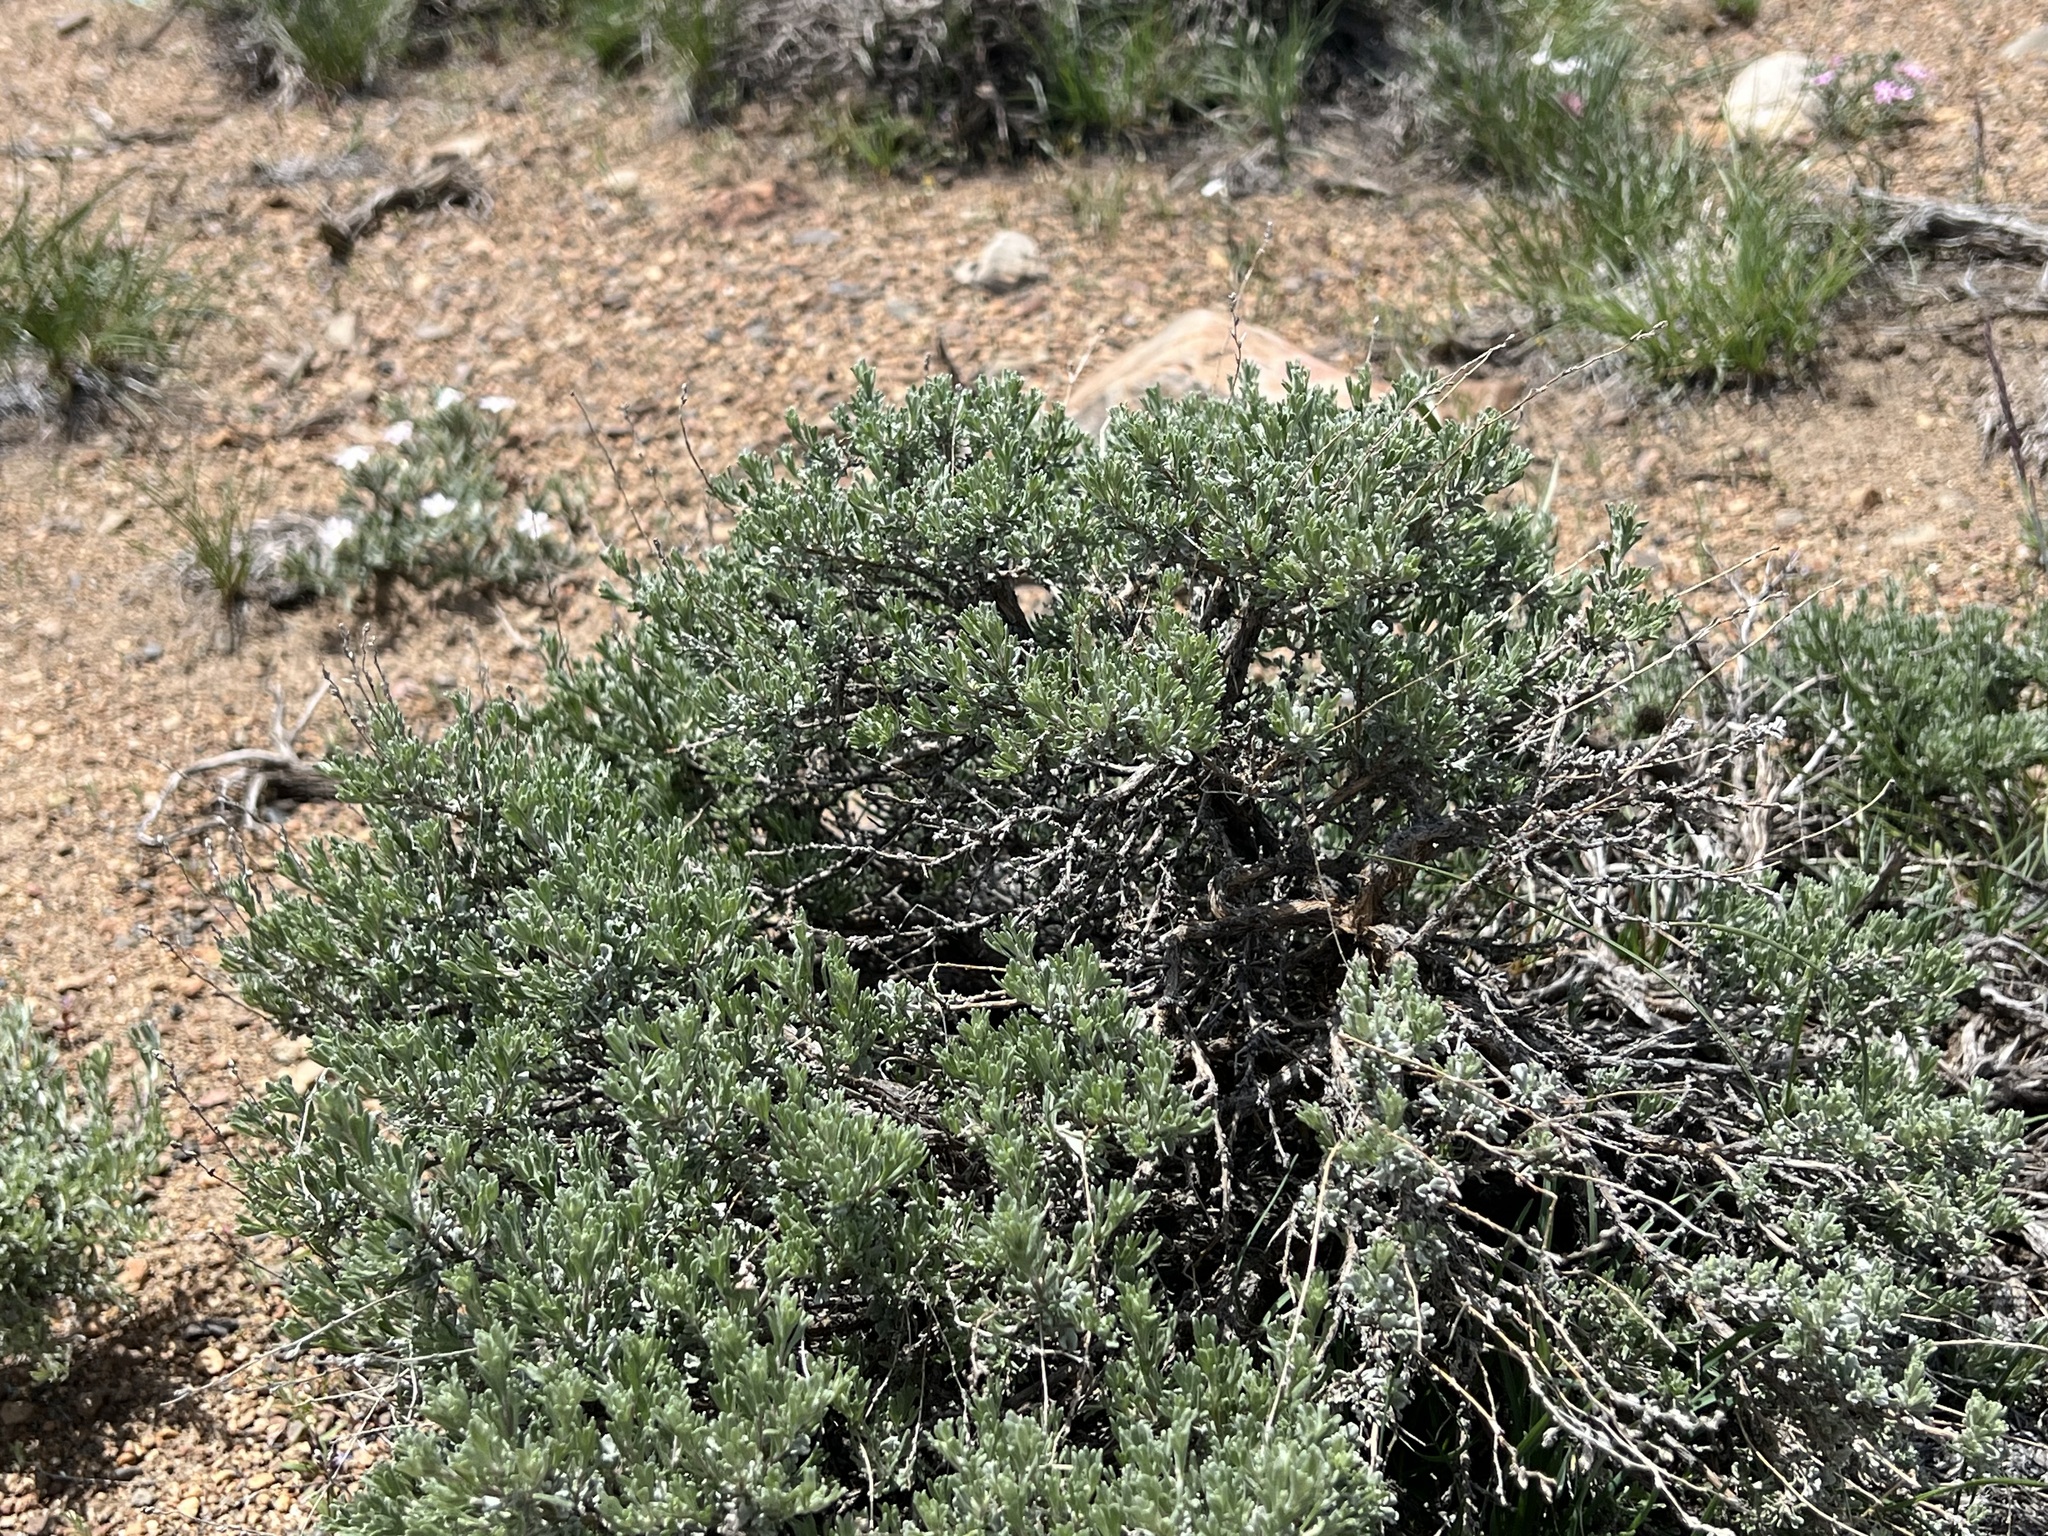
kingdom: Plantae
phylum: Tracheophyta
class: Magnoliopsida
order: Asterales
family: Asteraceae
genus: Artemisia
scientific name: Artemisia arbuscula
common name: Sagebrush
